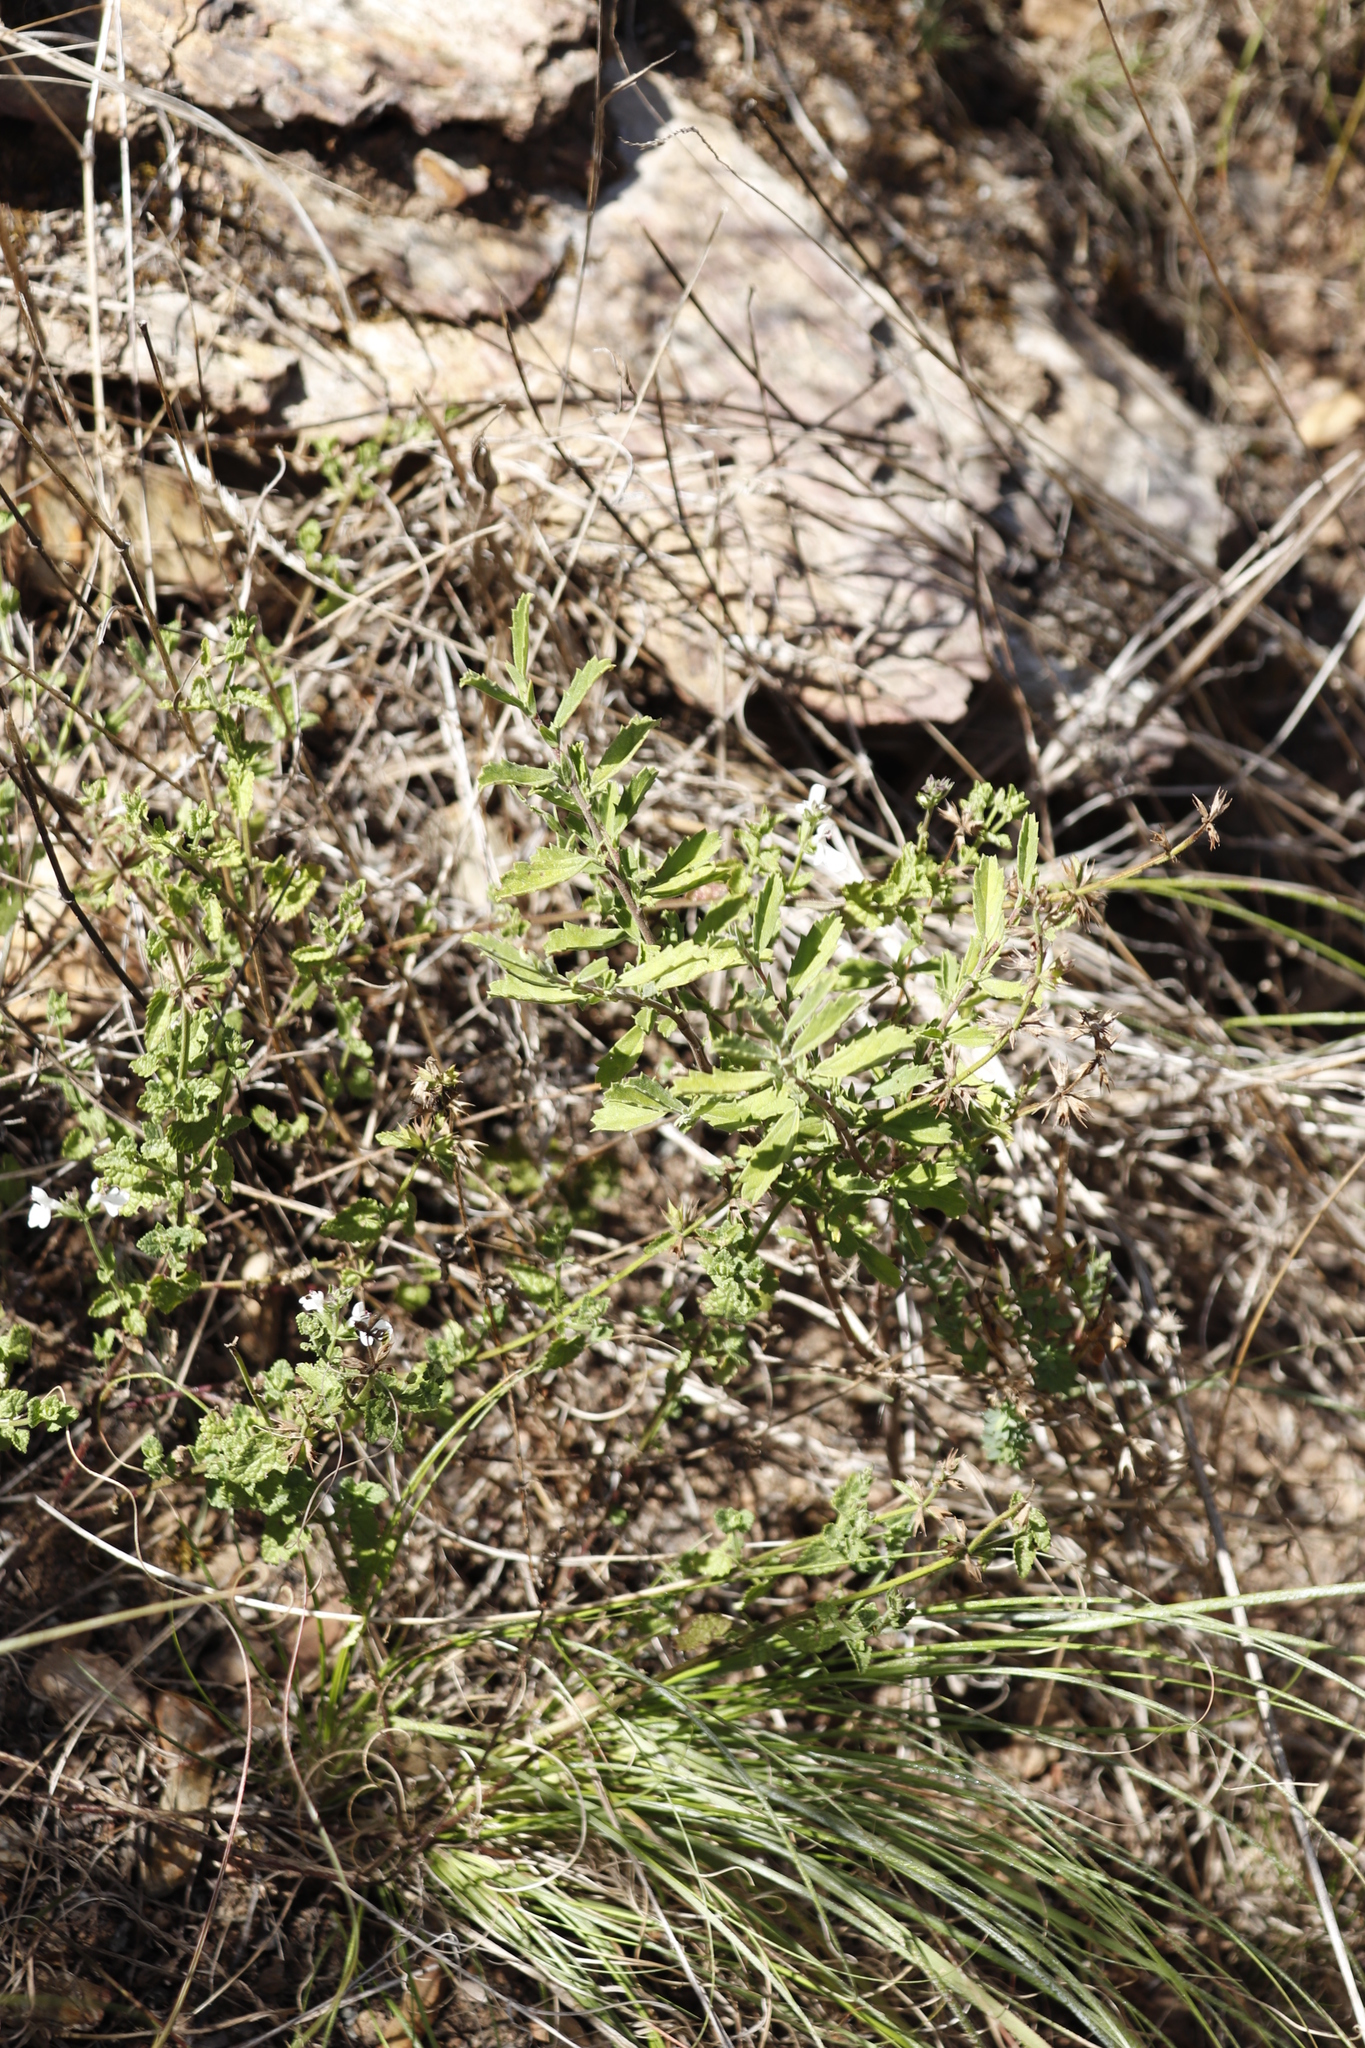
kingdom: Plantae
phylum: Tracheophyta
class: Magnoliopsida
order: Lamiales
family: Lamiaceae
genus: Stachys
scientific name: Stachys aethiopica
